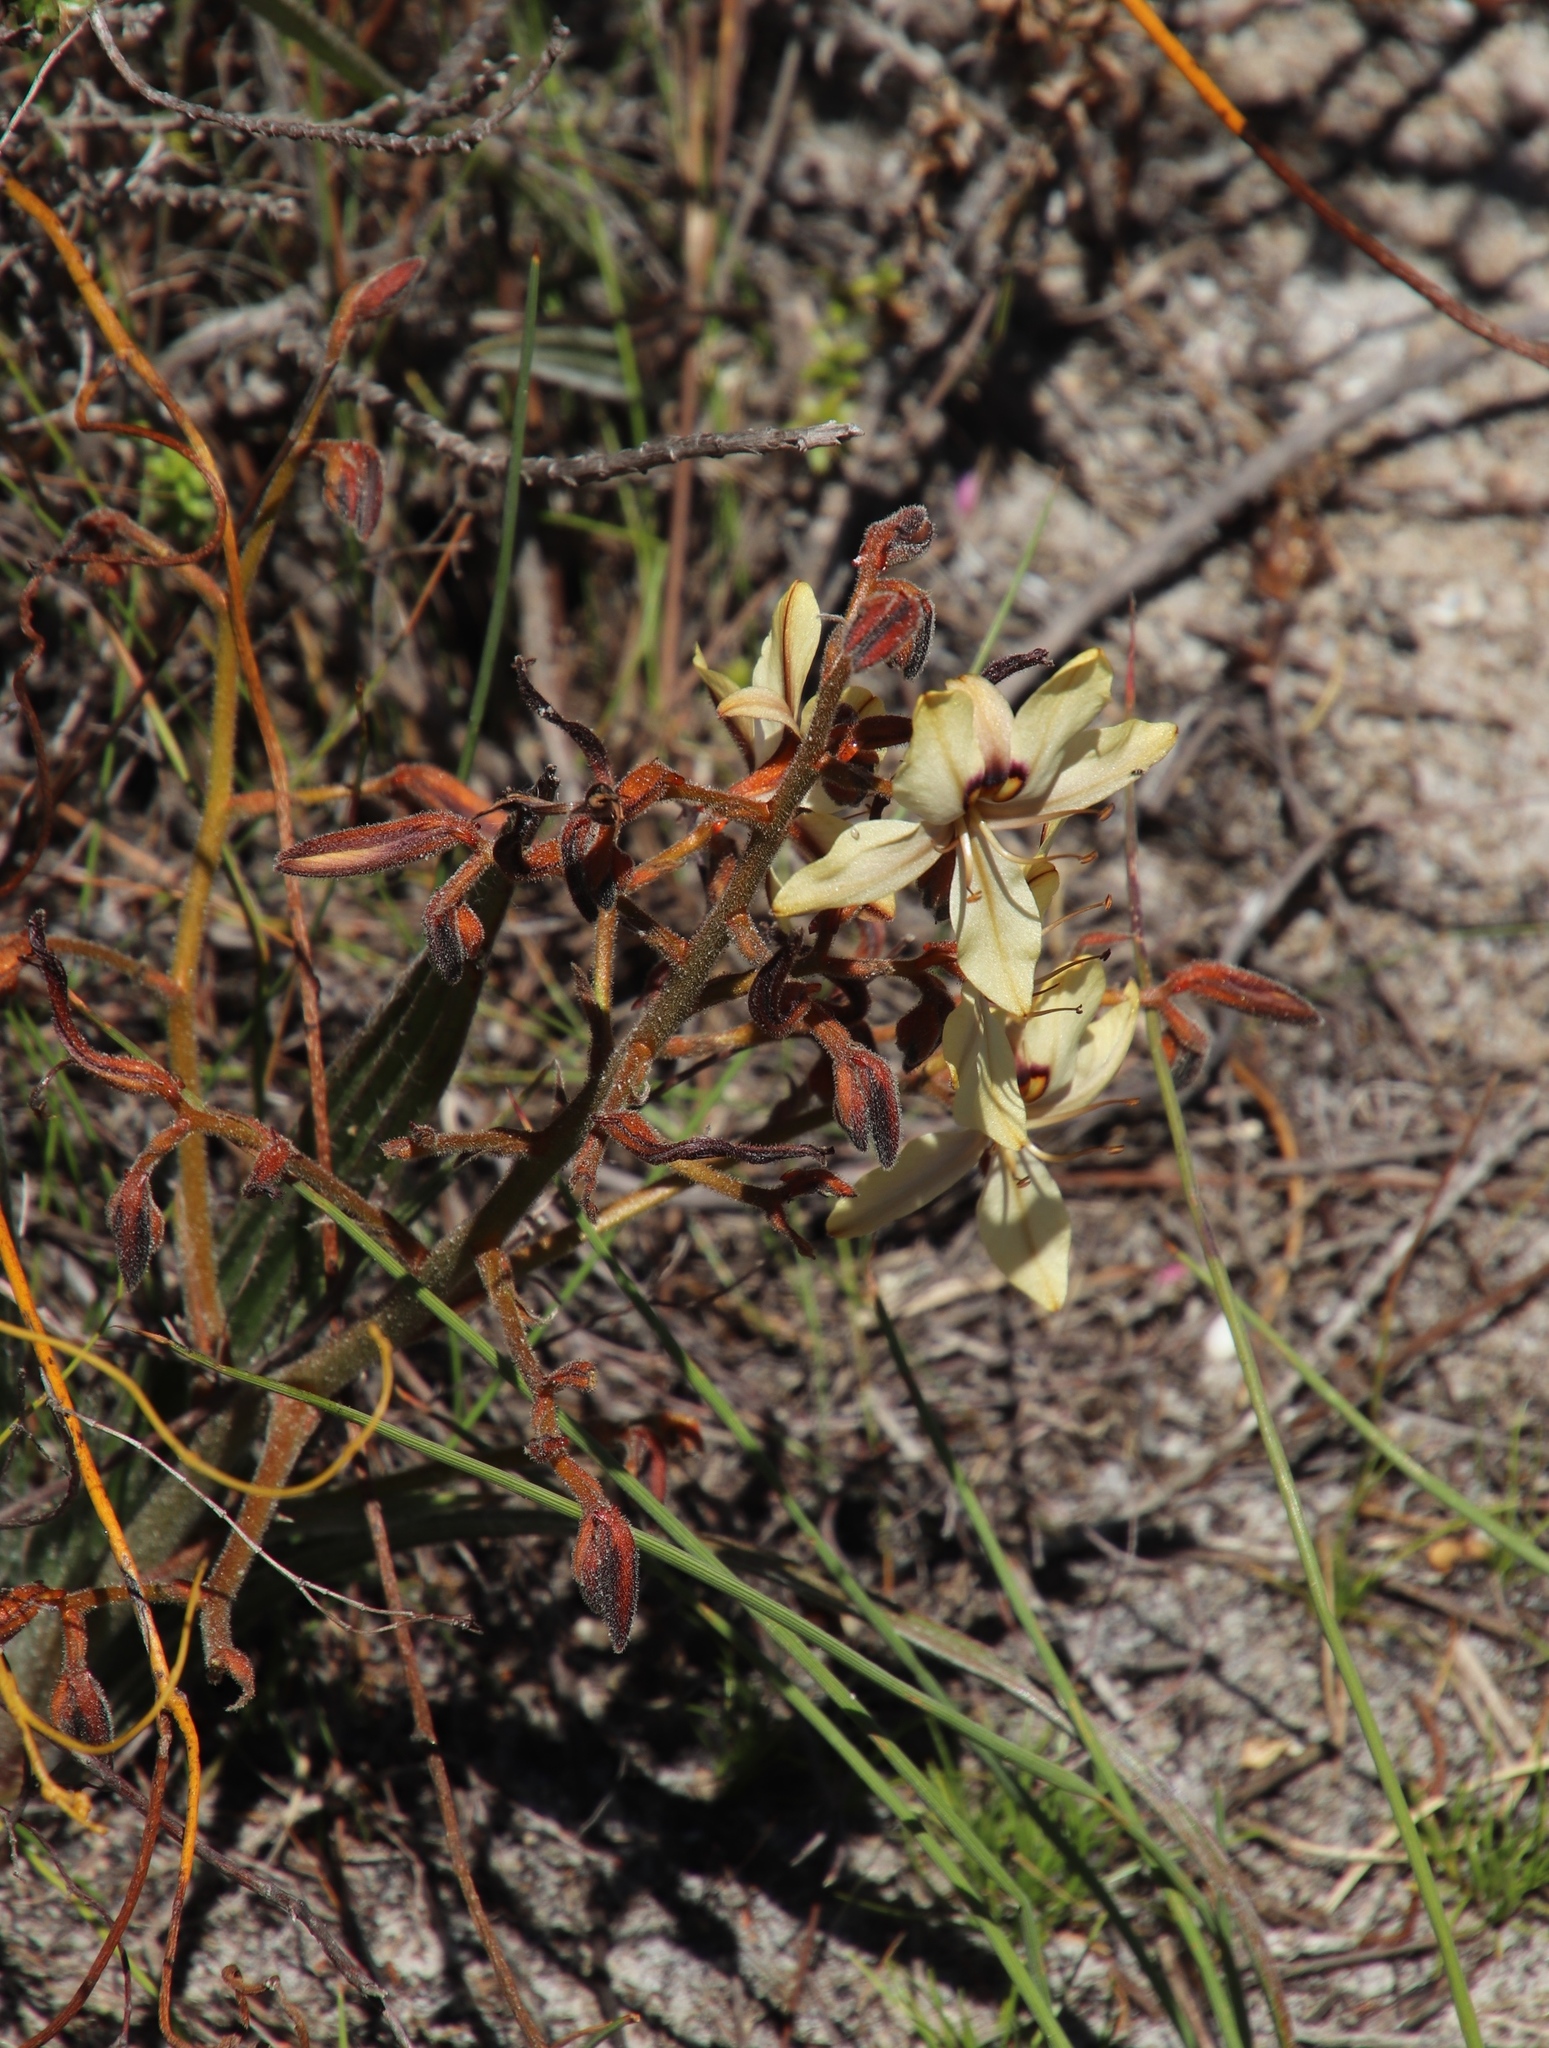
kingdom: Plantae
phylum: Tracheophyta
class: Liliopsida
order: Commelinales
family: Haemodoraceae
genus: Wachendorfia
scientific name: Wachendorfia paniculata
